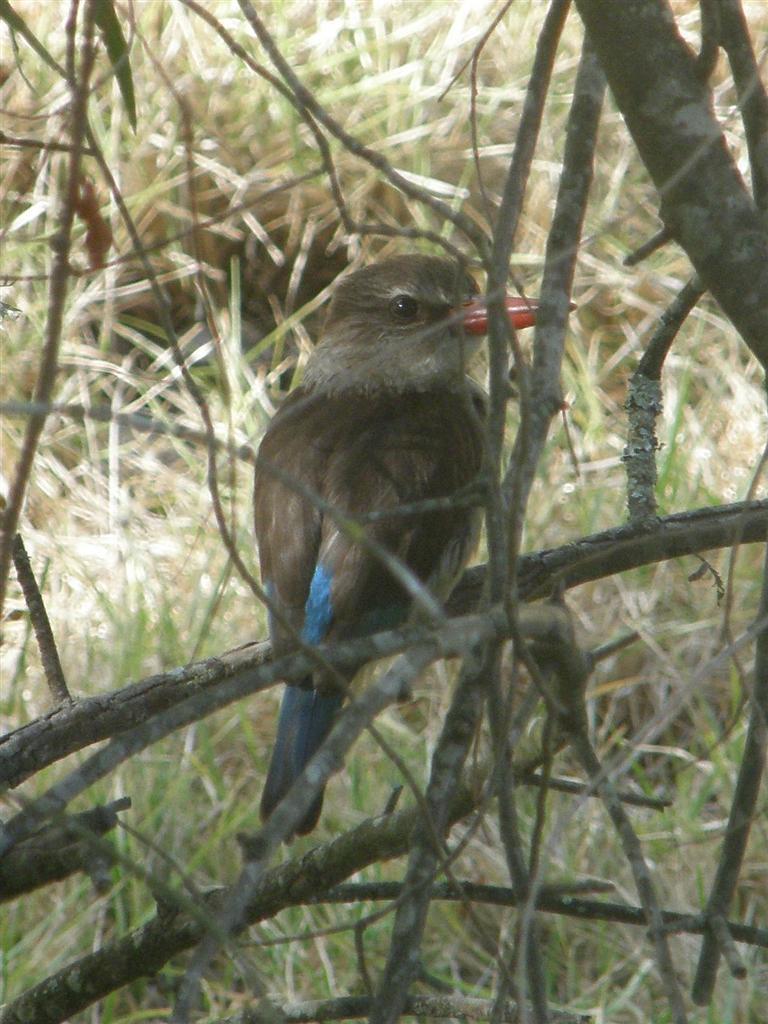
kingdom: Animalia
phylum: Chordata
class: Aves
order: Coraciiformes
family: Alcedinidae
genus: Halcyon
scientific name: Halcyon albiventris
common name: Brown-hooded kingfisher
